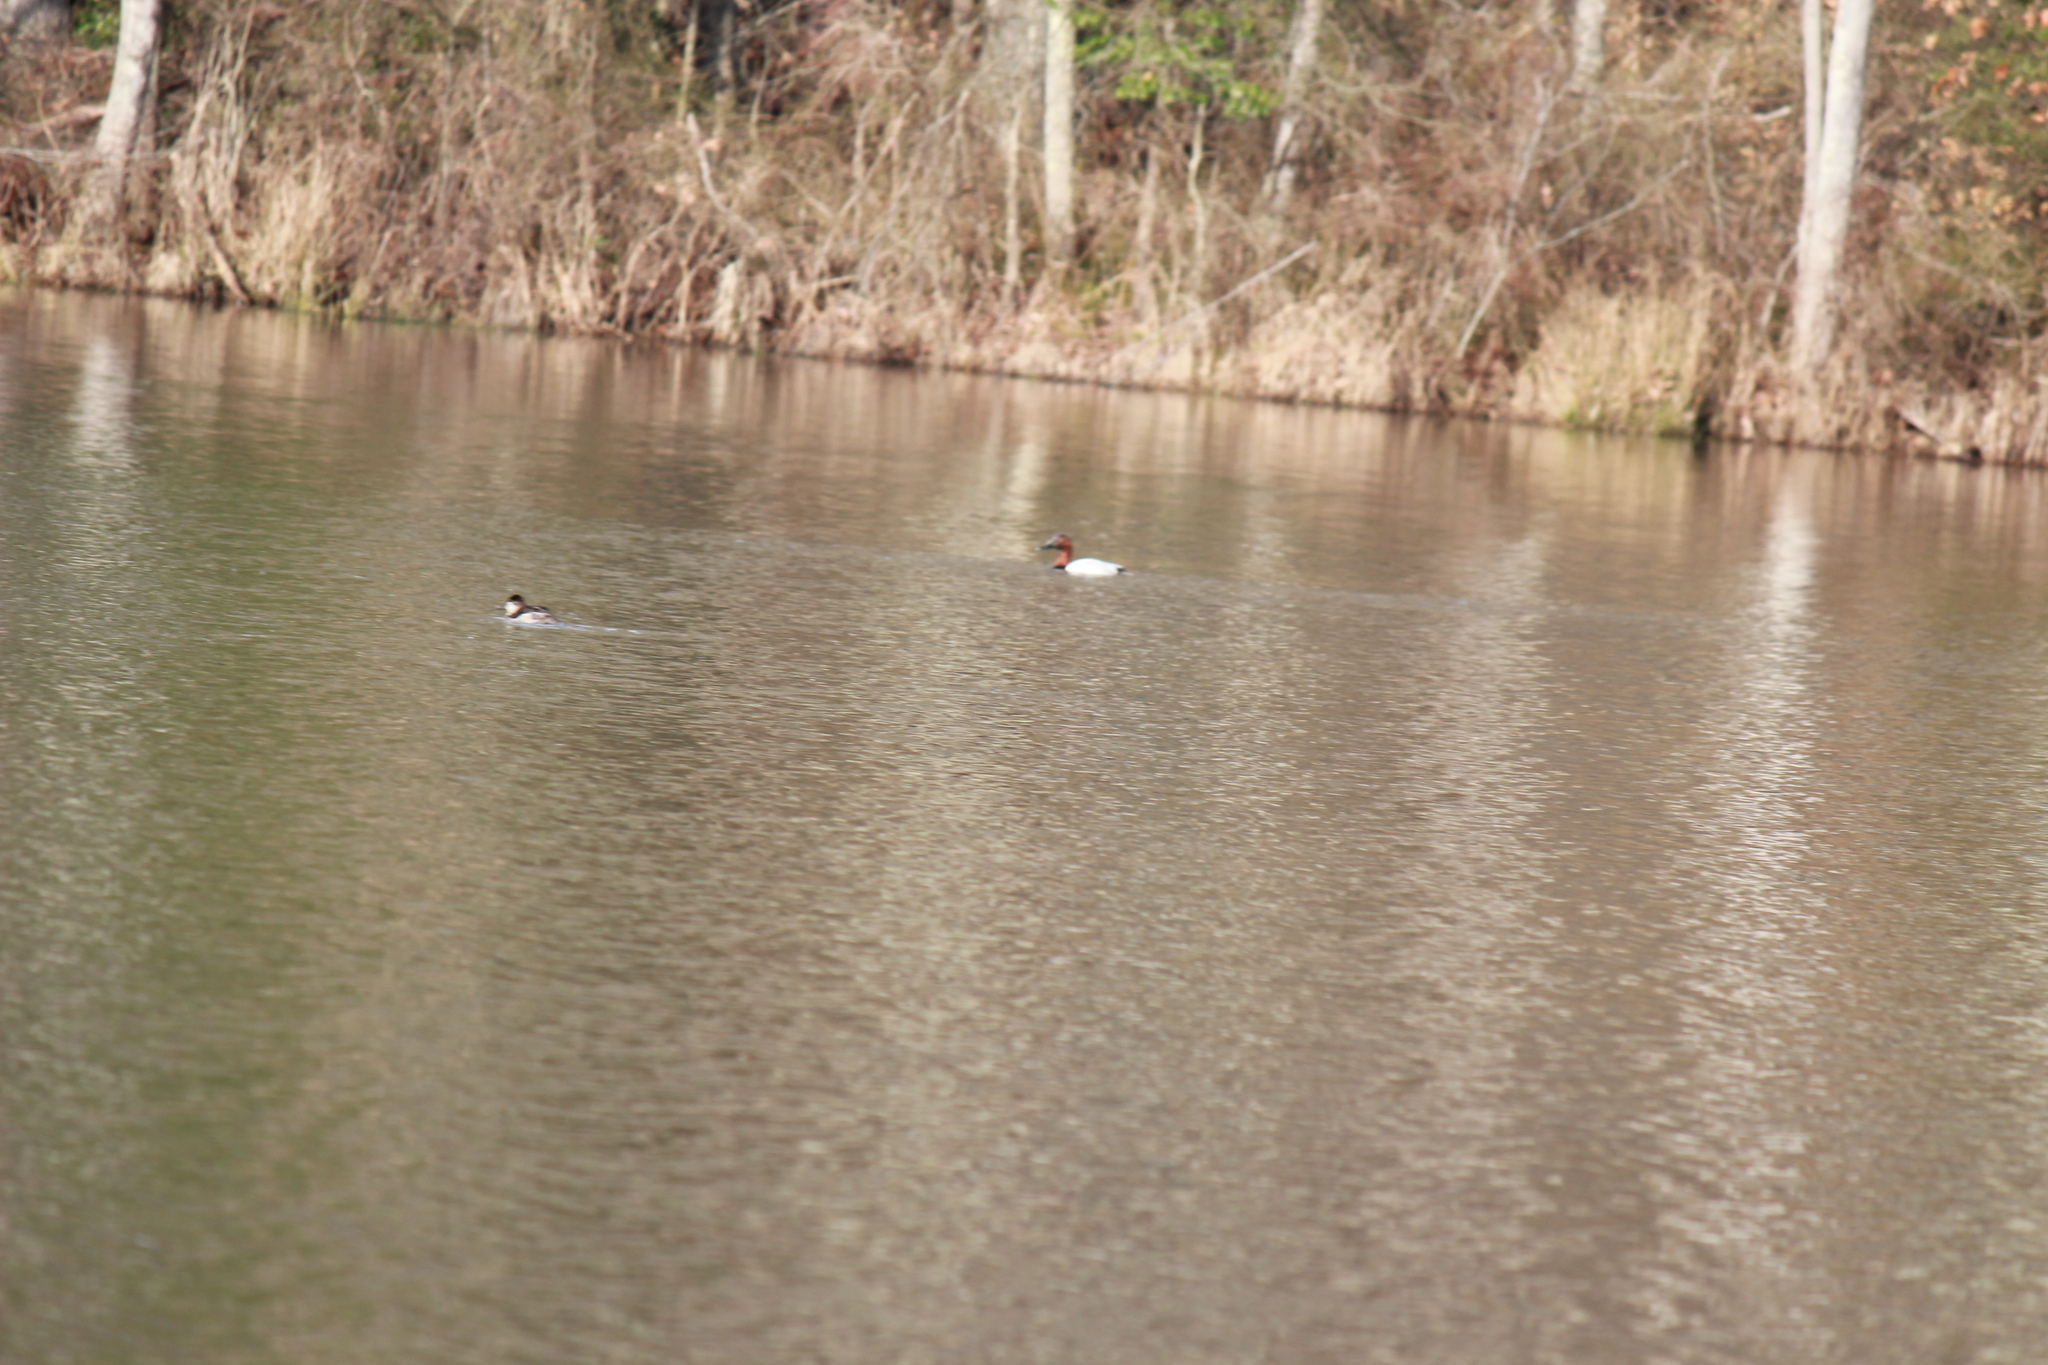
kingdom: Animalia
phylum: Chordata
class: Aves
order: Anseriformes
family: Anatidae
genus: Aythya
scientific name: Aythya valisineria
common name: Canvasback
